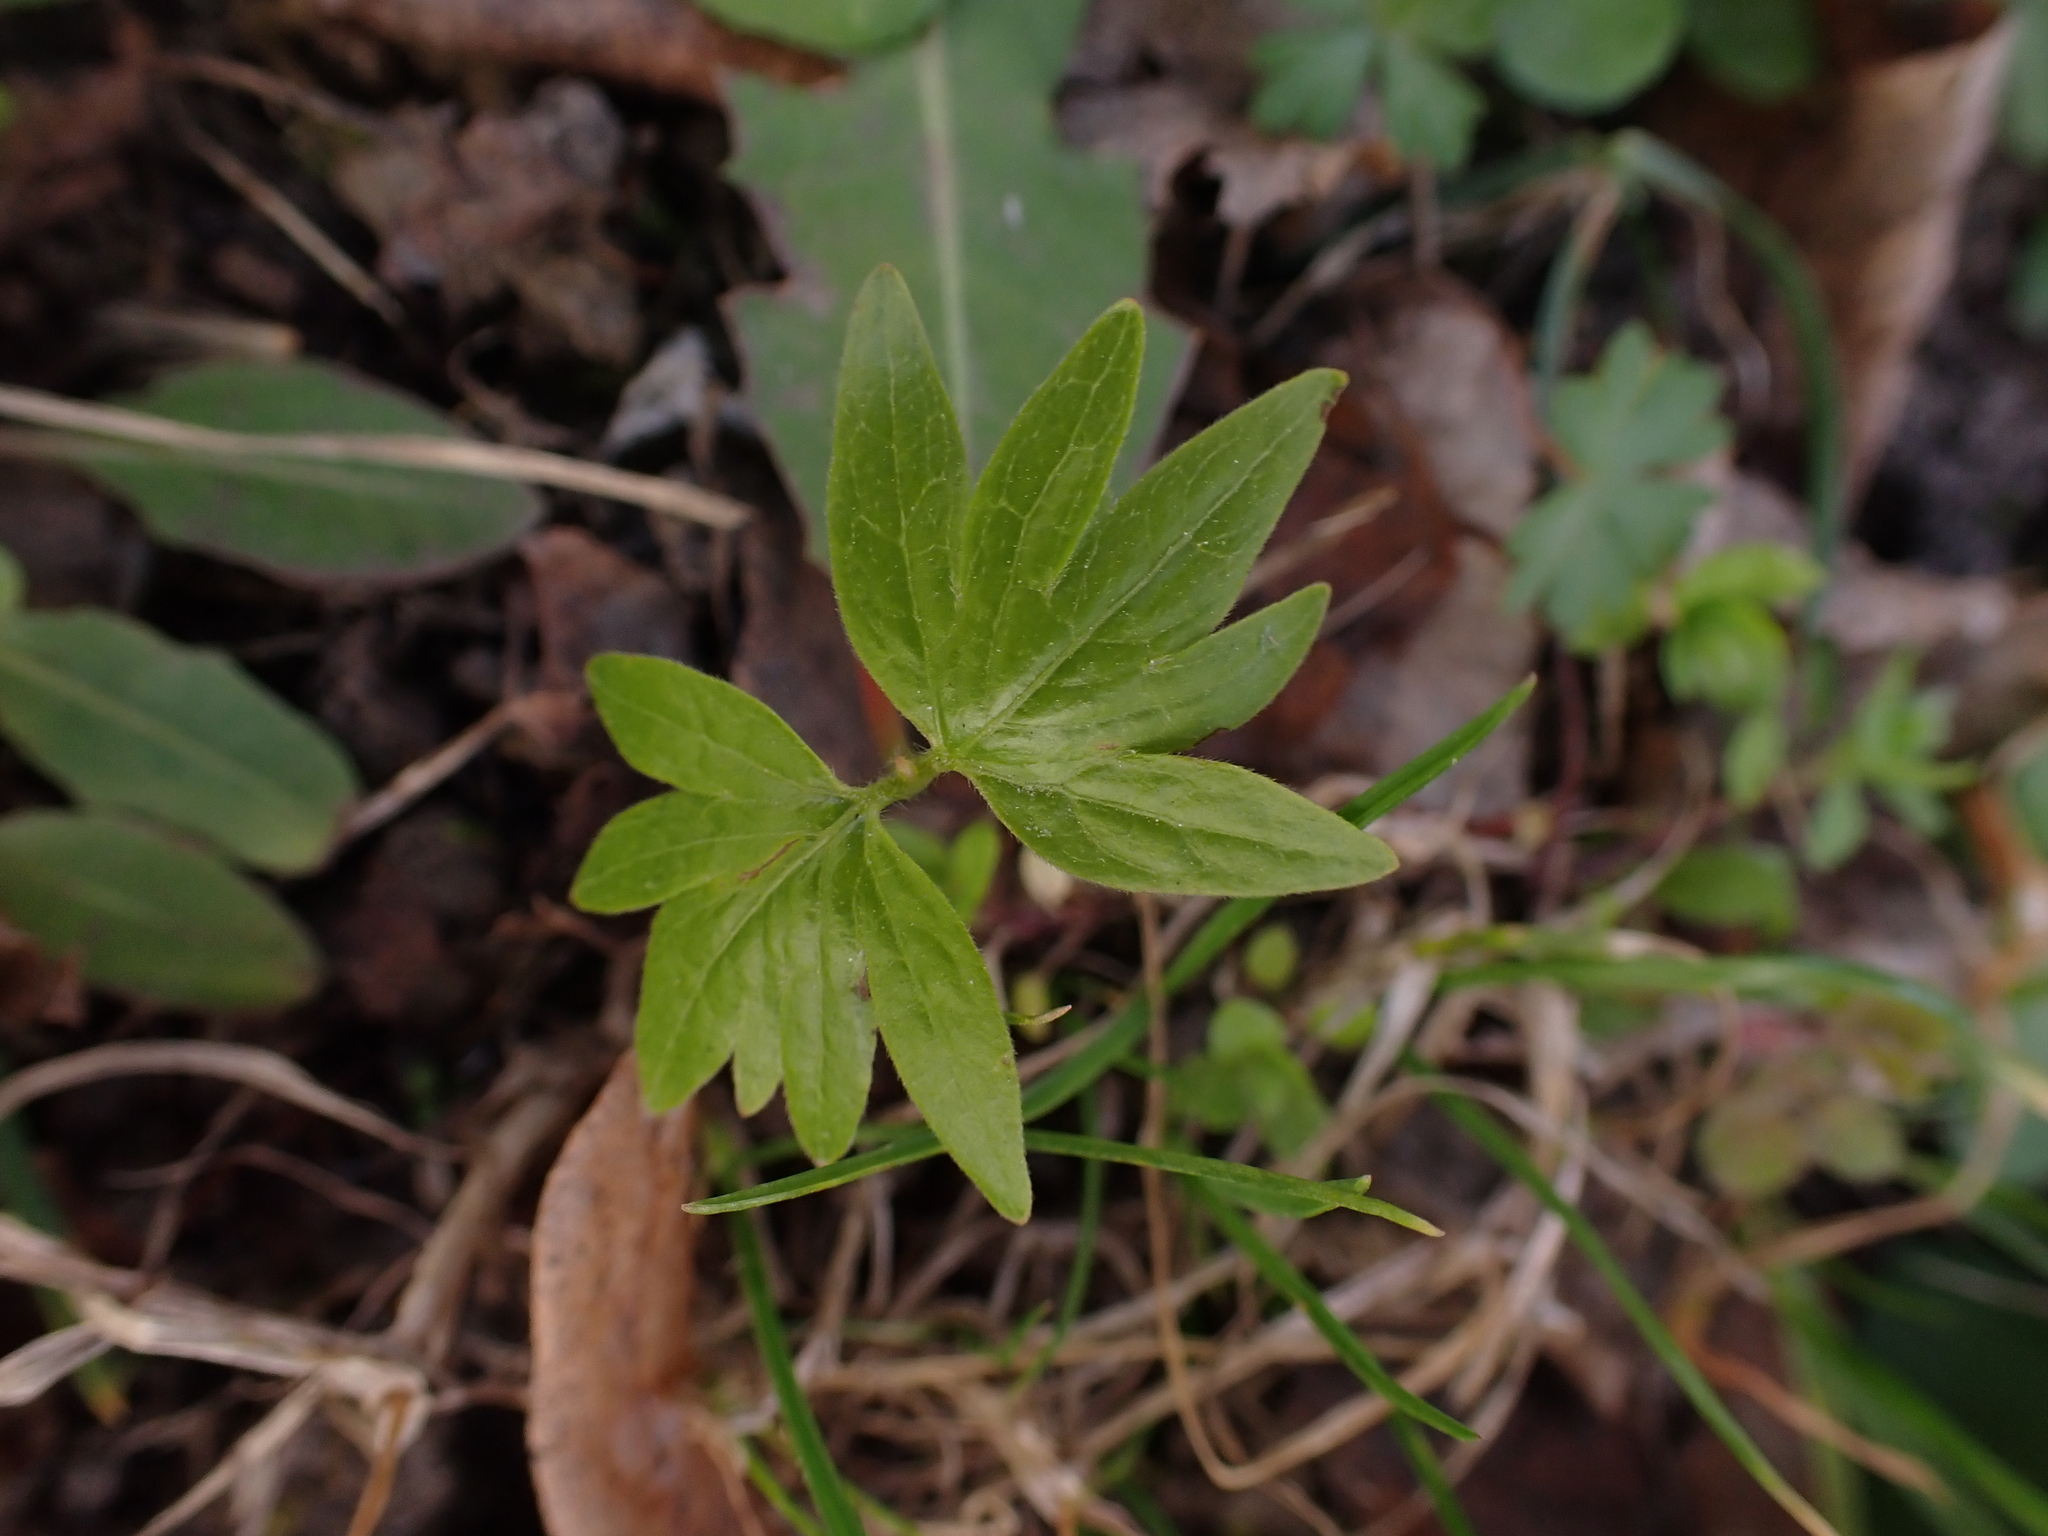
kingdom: Plantae
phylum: Tracheophyta
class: Magnoliopsida
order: Malvales
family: Malvaceae
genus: Tilia
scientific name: Tilia
